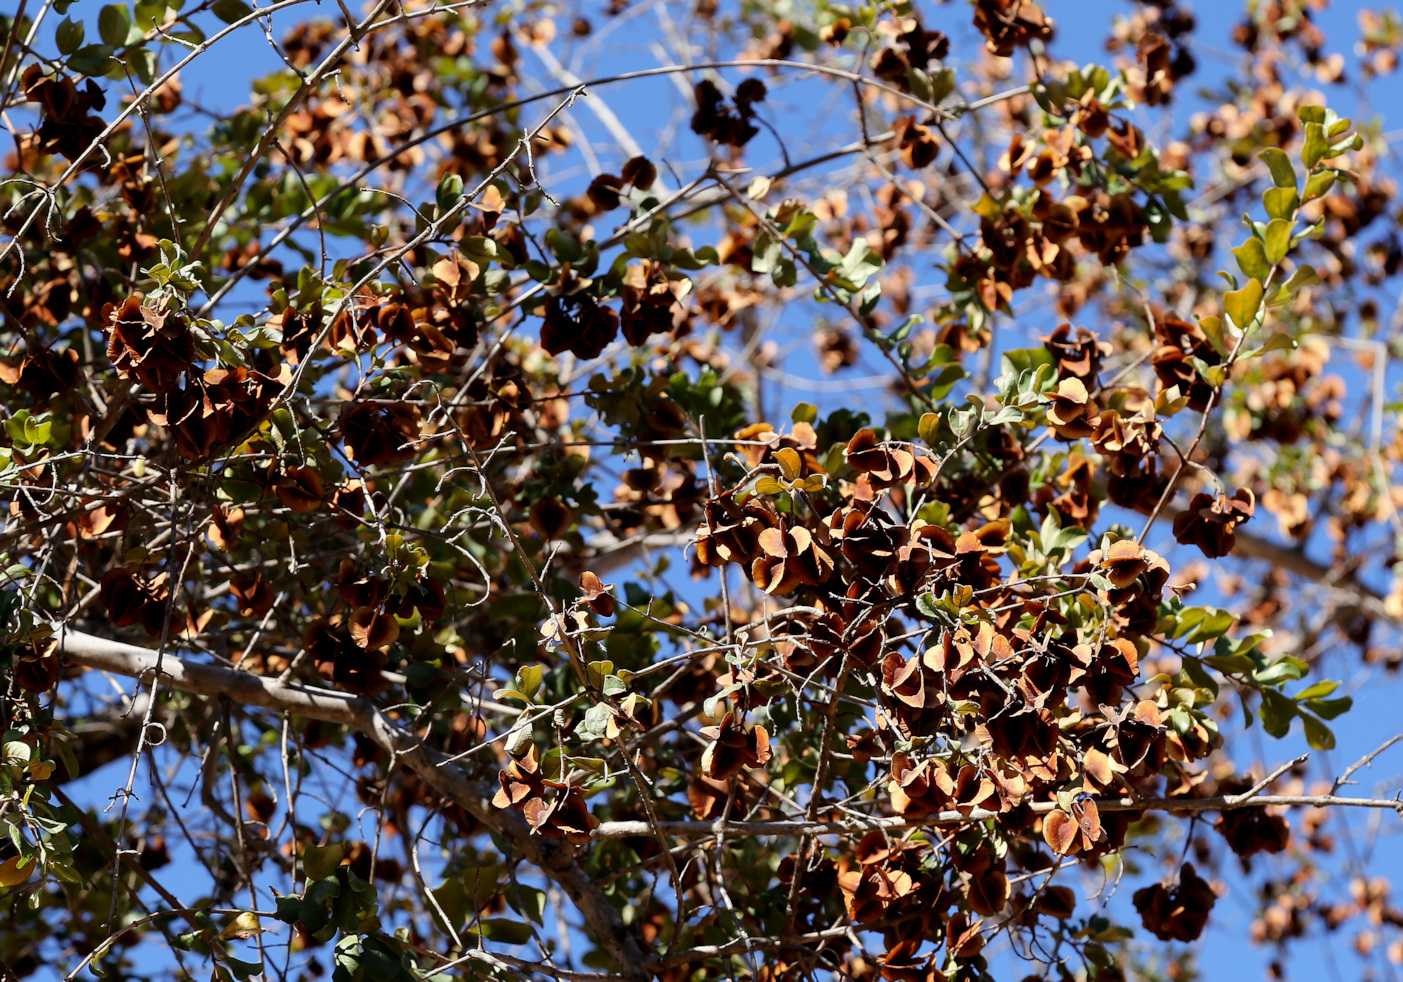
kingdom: Plantae
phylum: Tracheophyta
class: Magnoliopsida
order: Myrtales
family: Combretaceae
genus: Combretum
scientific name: Combretum hereroense
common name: Russet bushwillow
